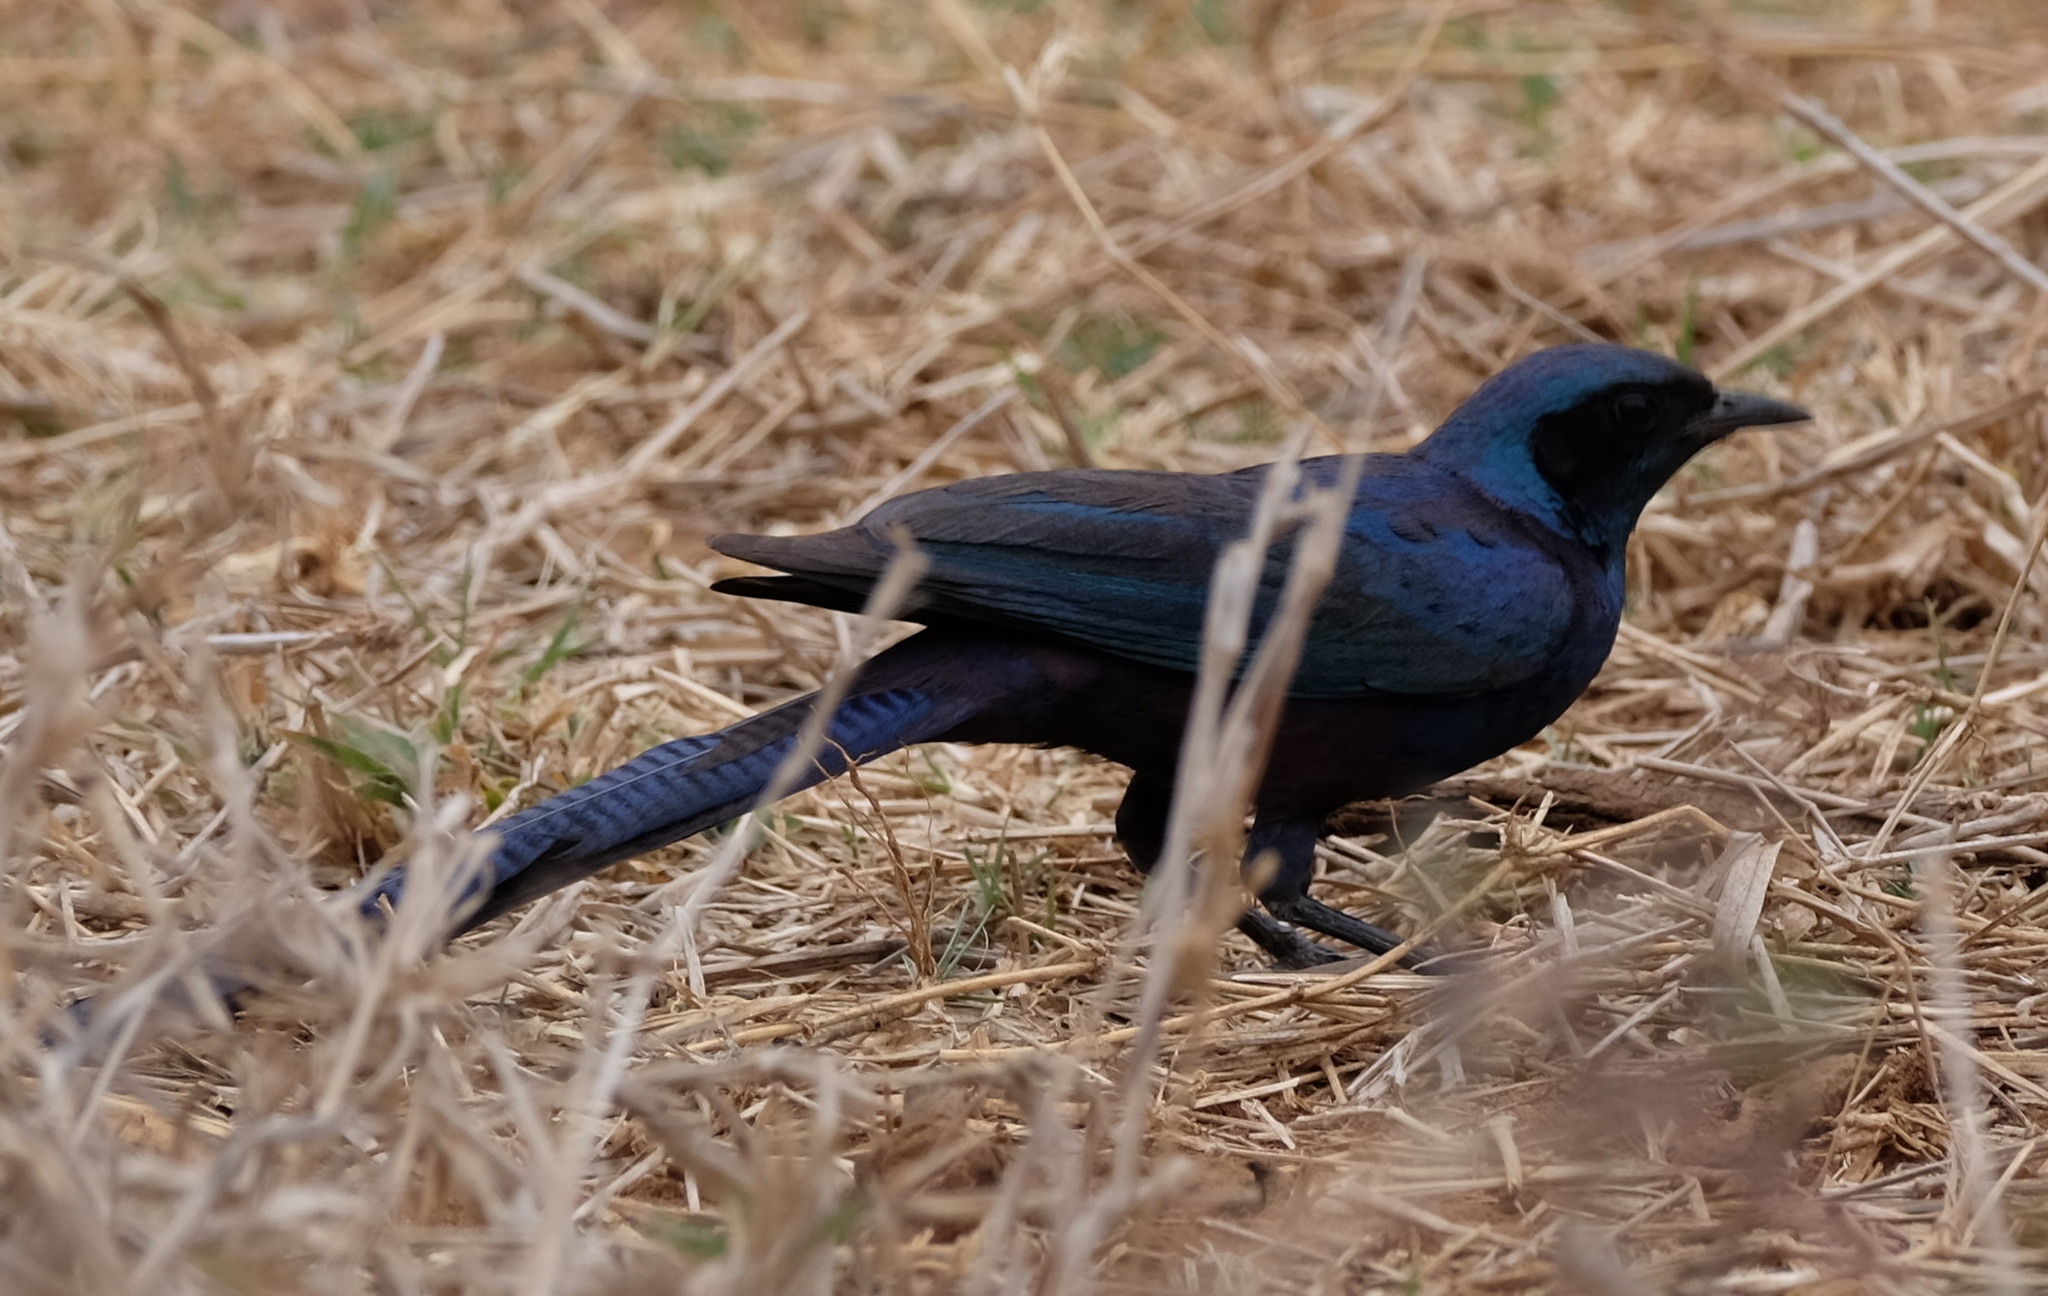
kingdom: Animalia
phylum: Chordata
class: Aves
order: Passeriformes
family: Sturnidae
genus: Lamprotornis
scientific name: Lamprotornis mevesii
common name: Meves's starling
